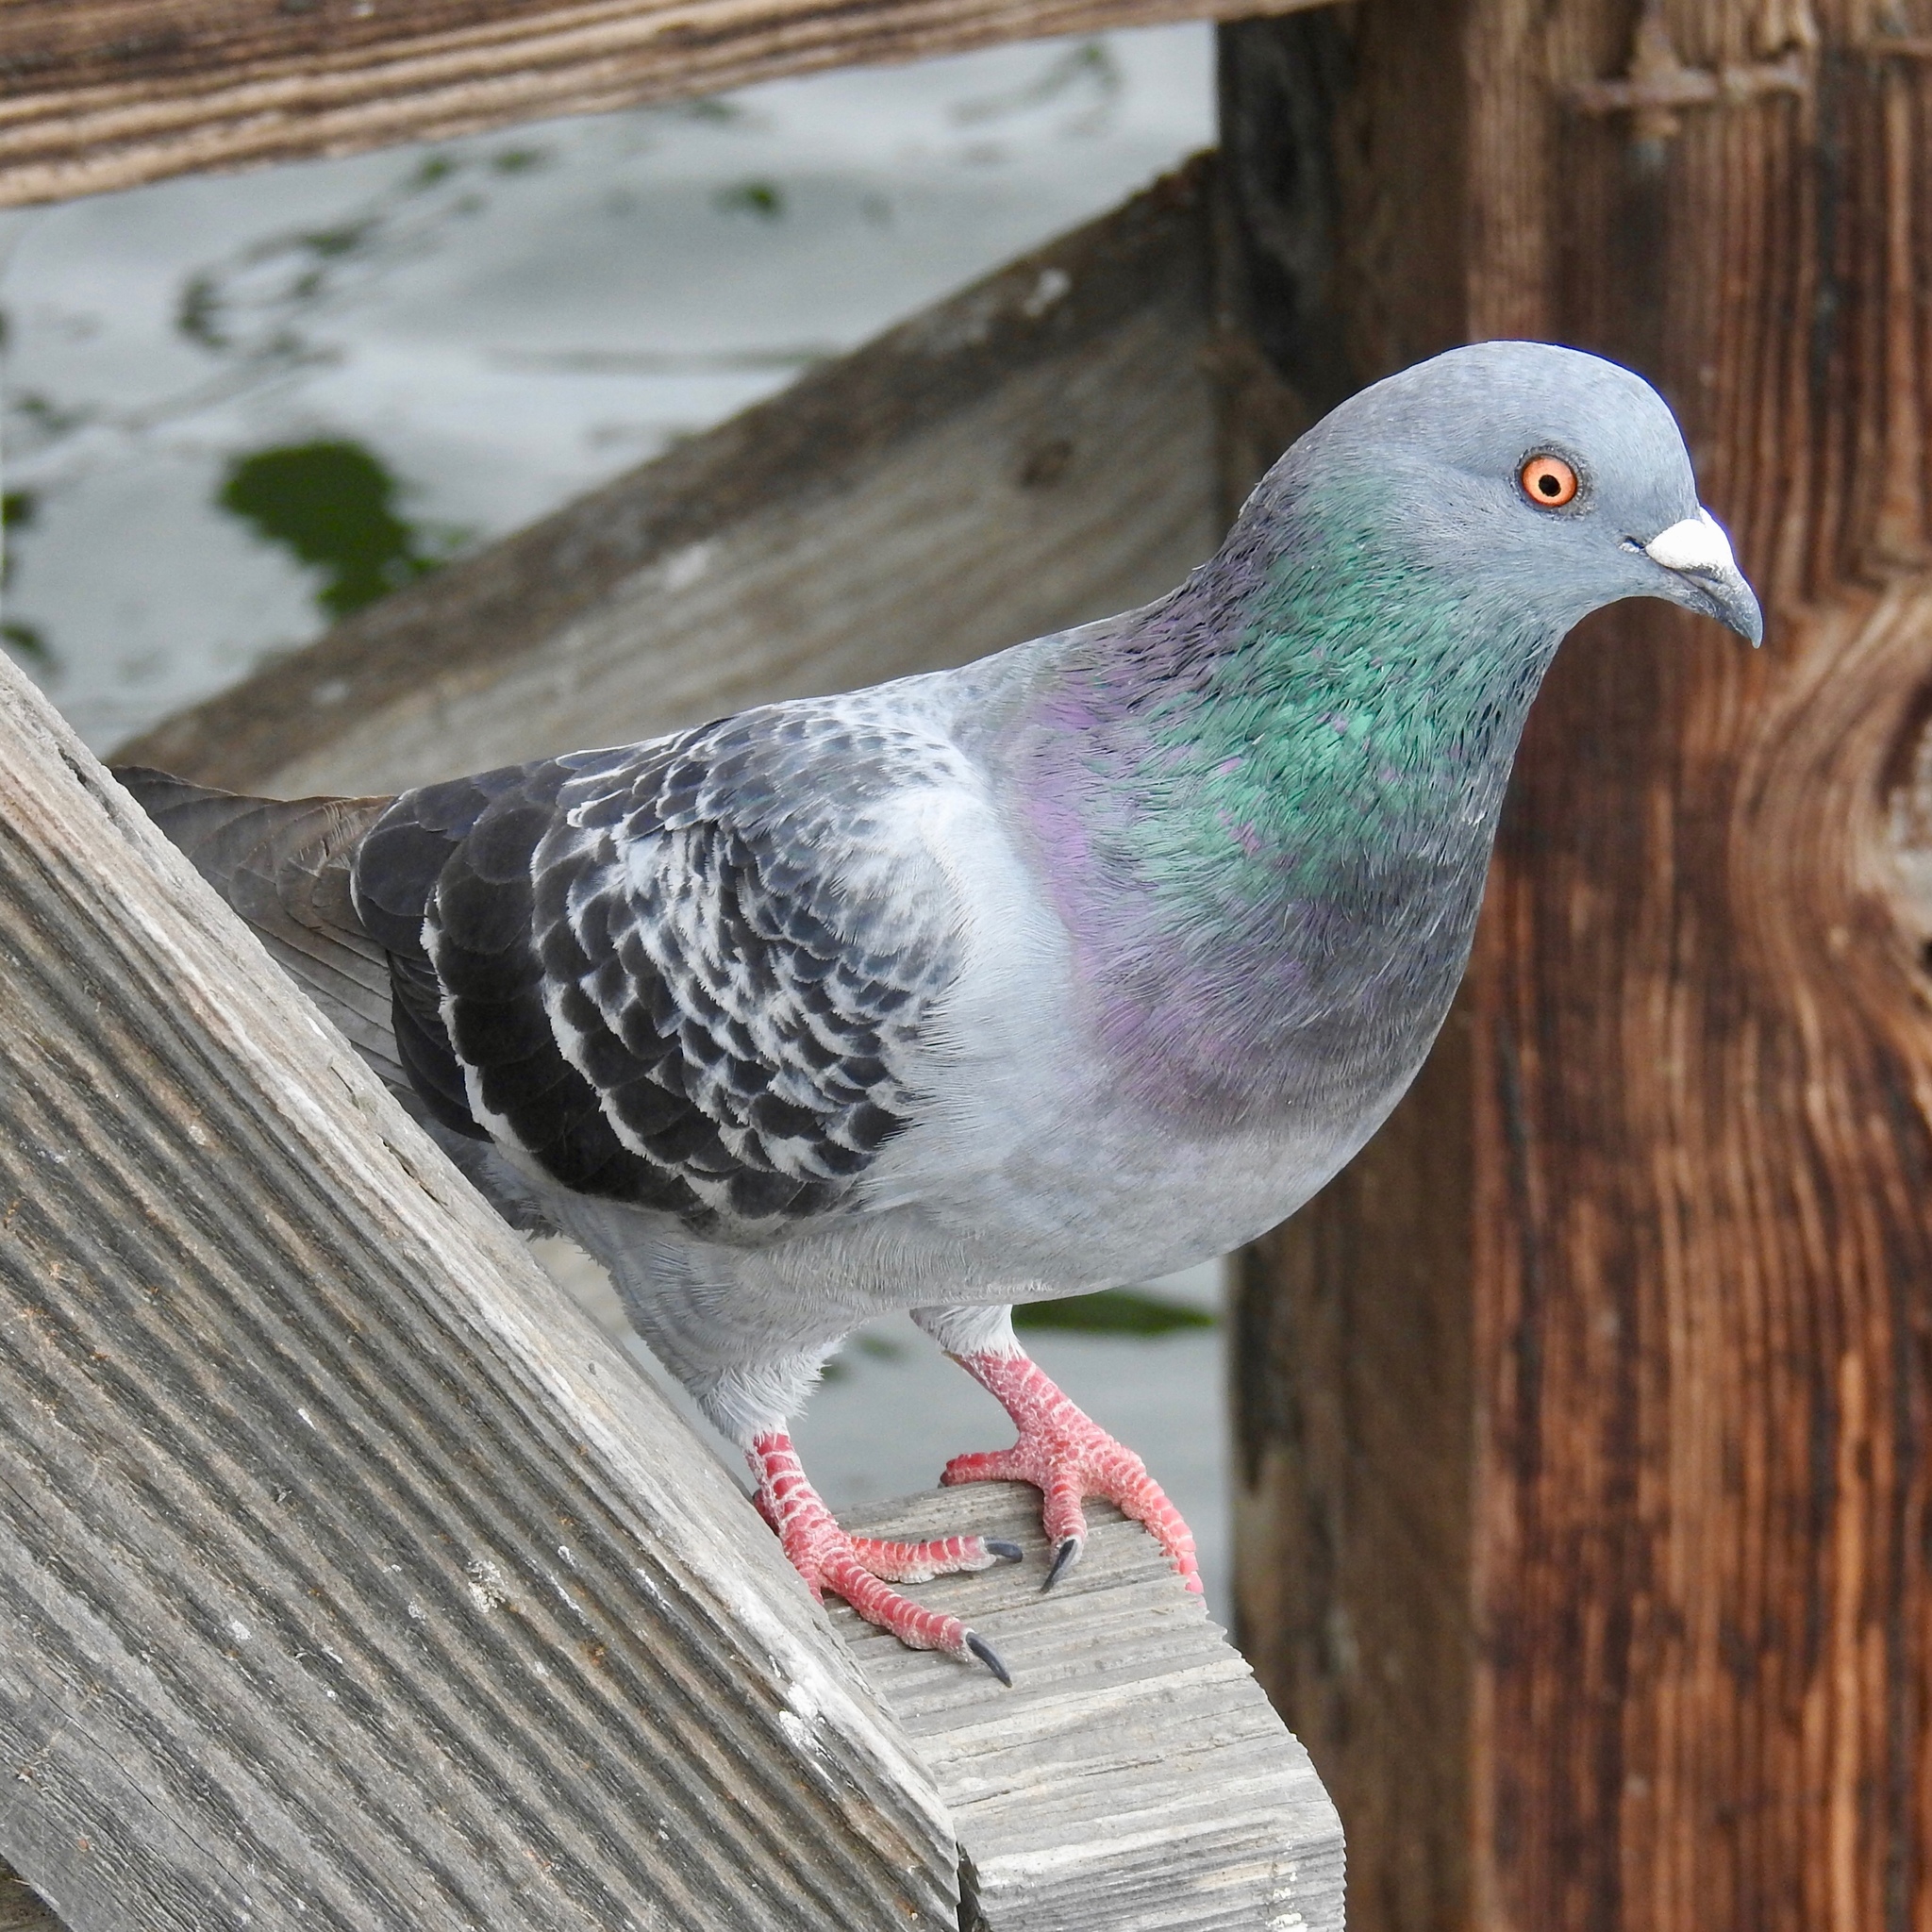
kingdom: Animalia
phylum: Chordata
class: Aves
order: Columbiformes
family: Columbidae
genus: Columba
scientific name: Columba livia
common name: Rock pigeon
